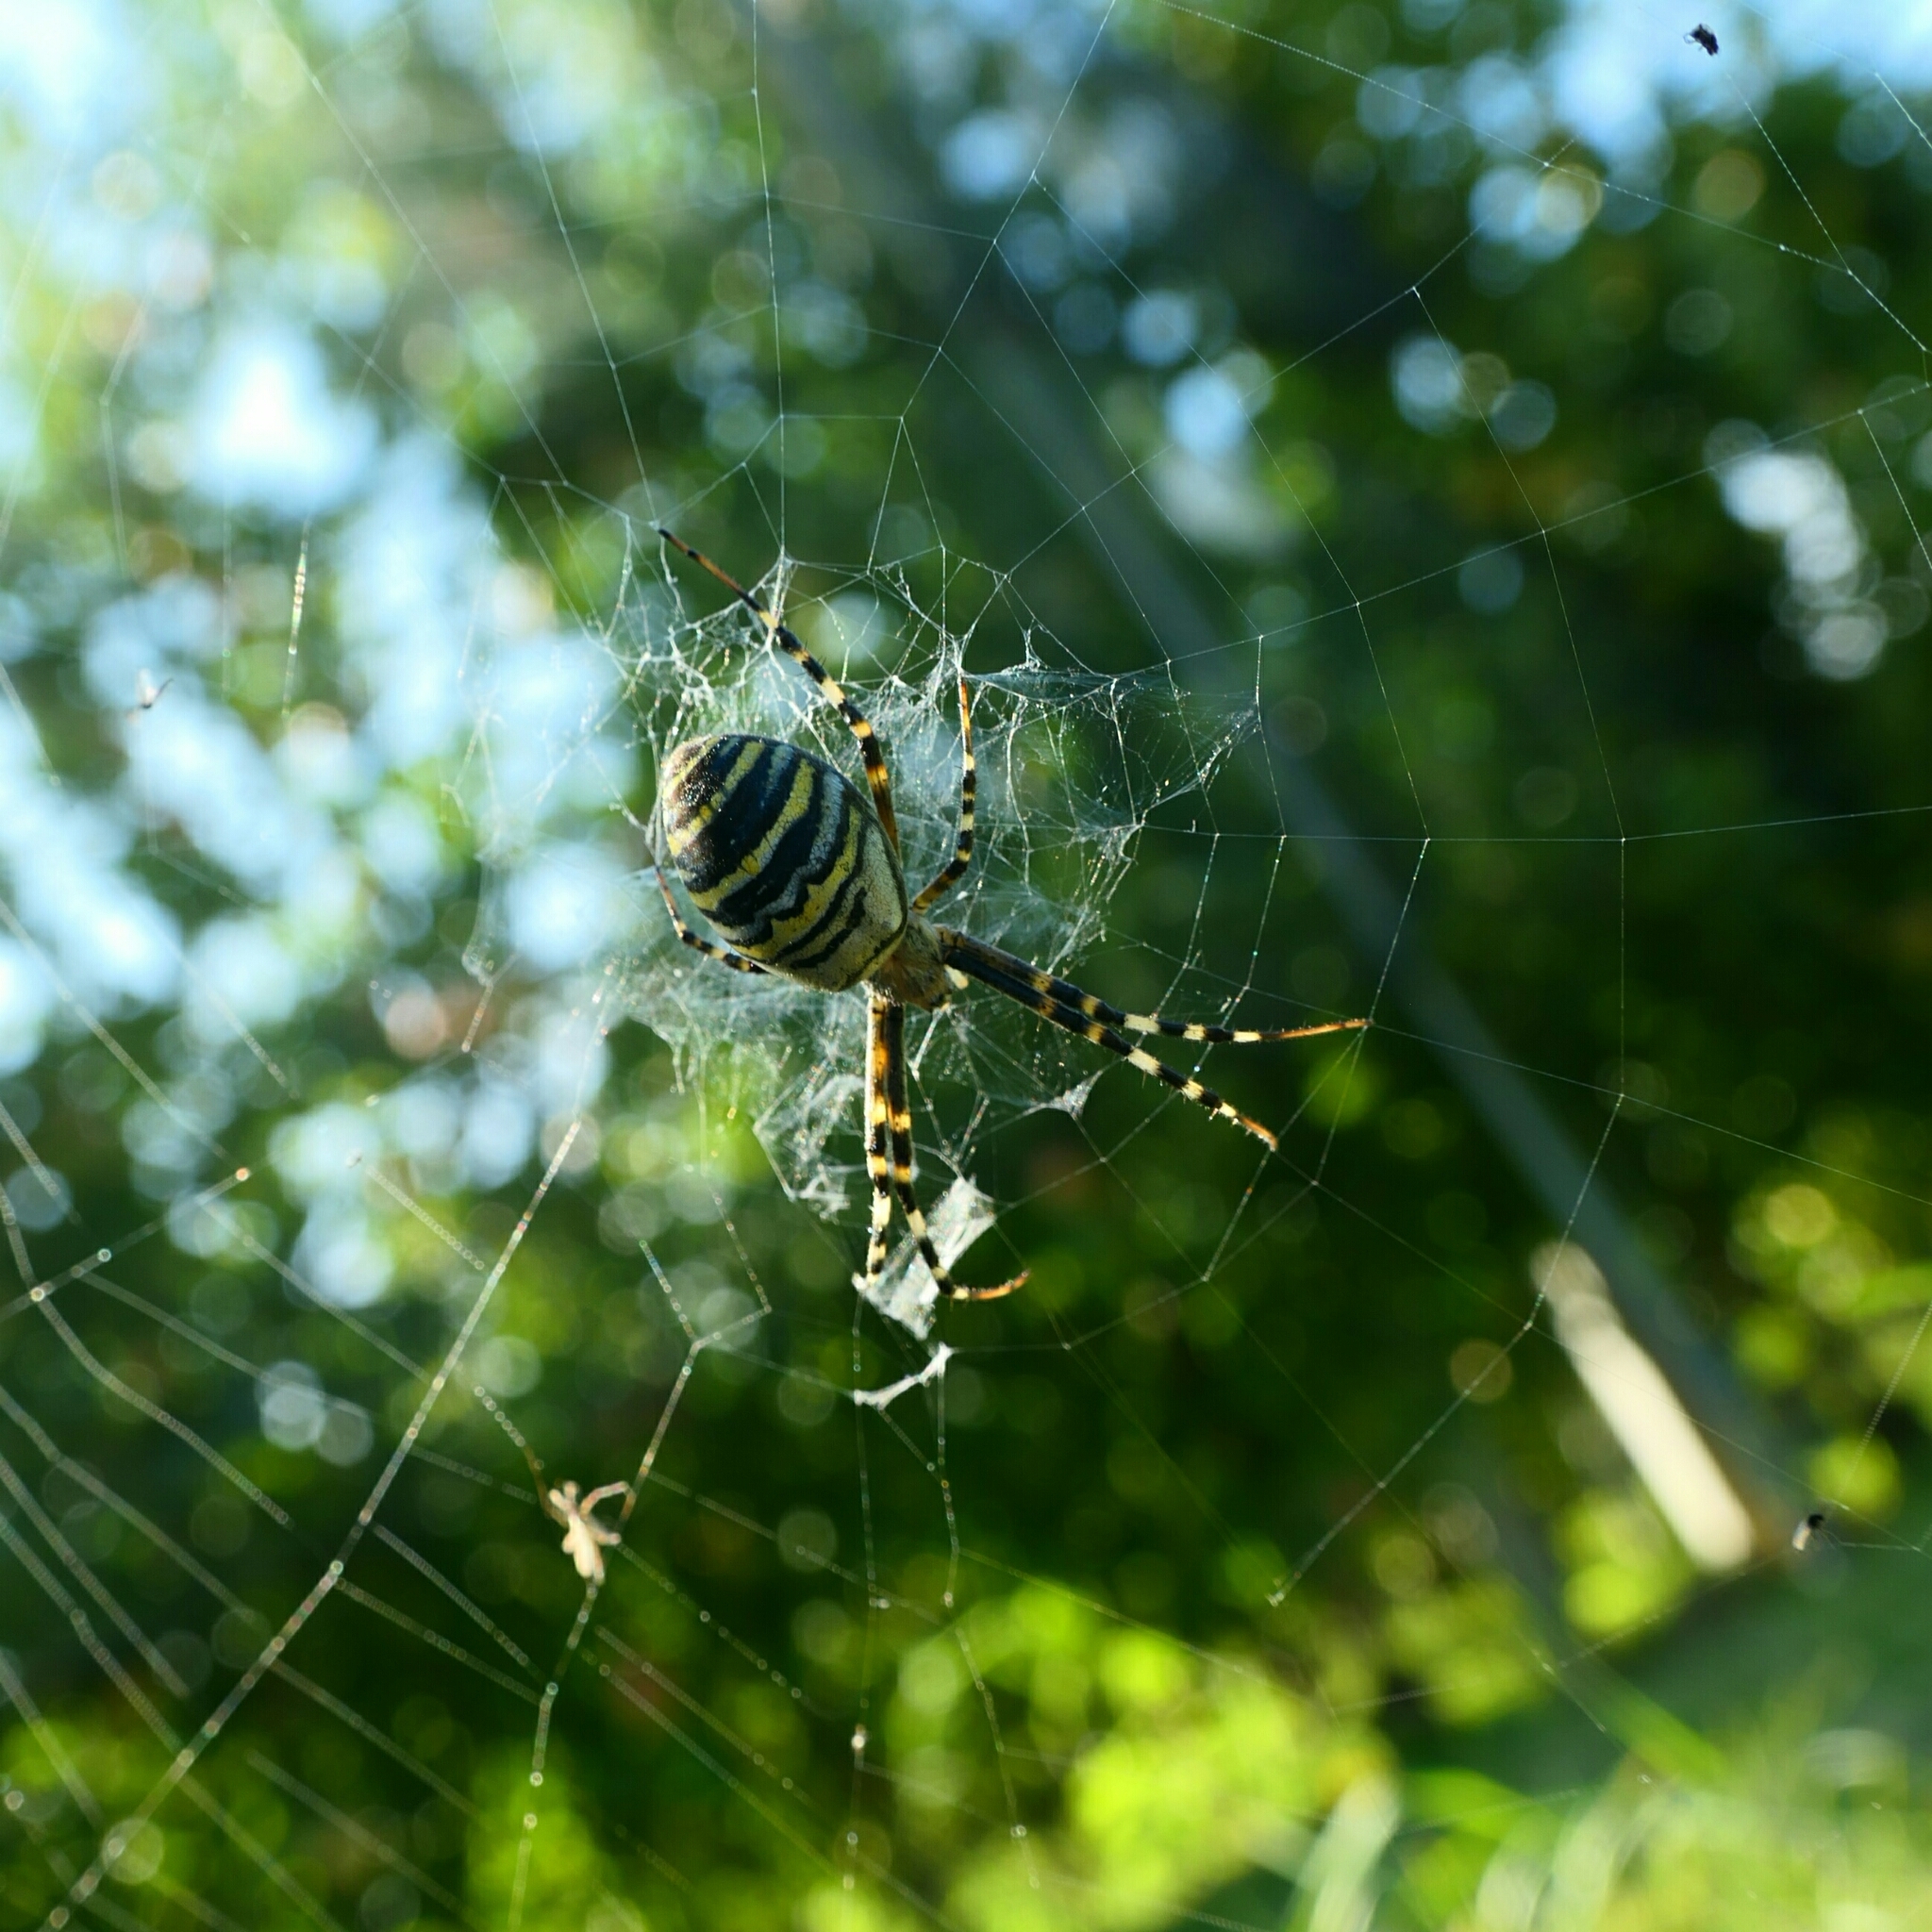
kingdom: Animalia
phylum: Arthropoda
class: Arachnida
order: Araneae
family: Araneidae
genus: Argiope
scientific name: Argiope bruennichi
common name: Wasp spider
